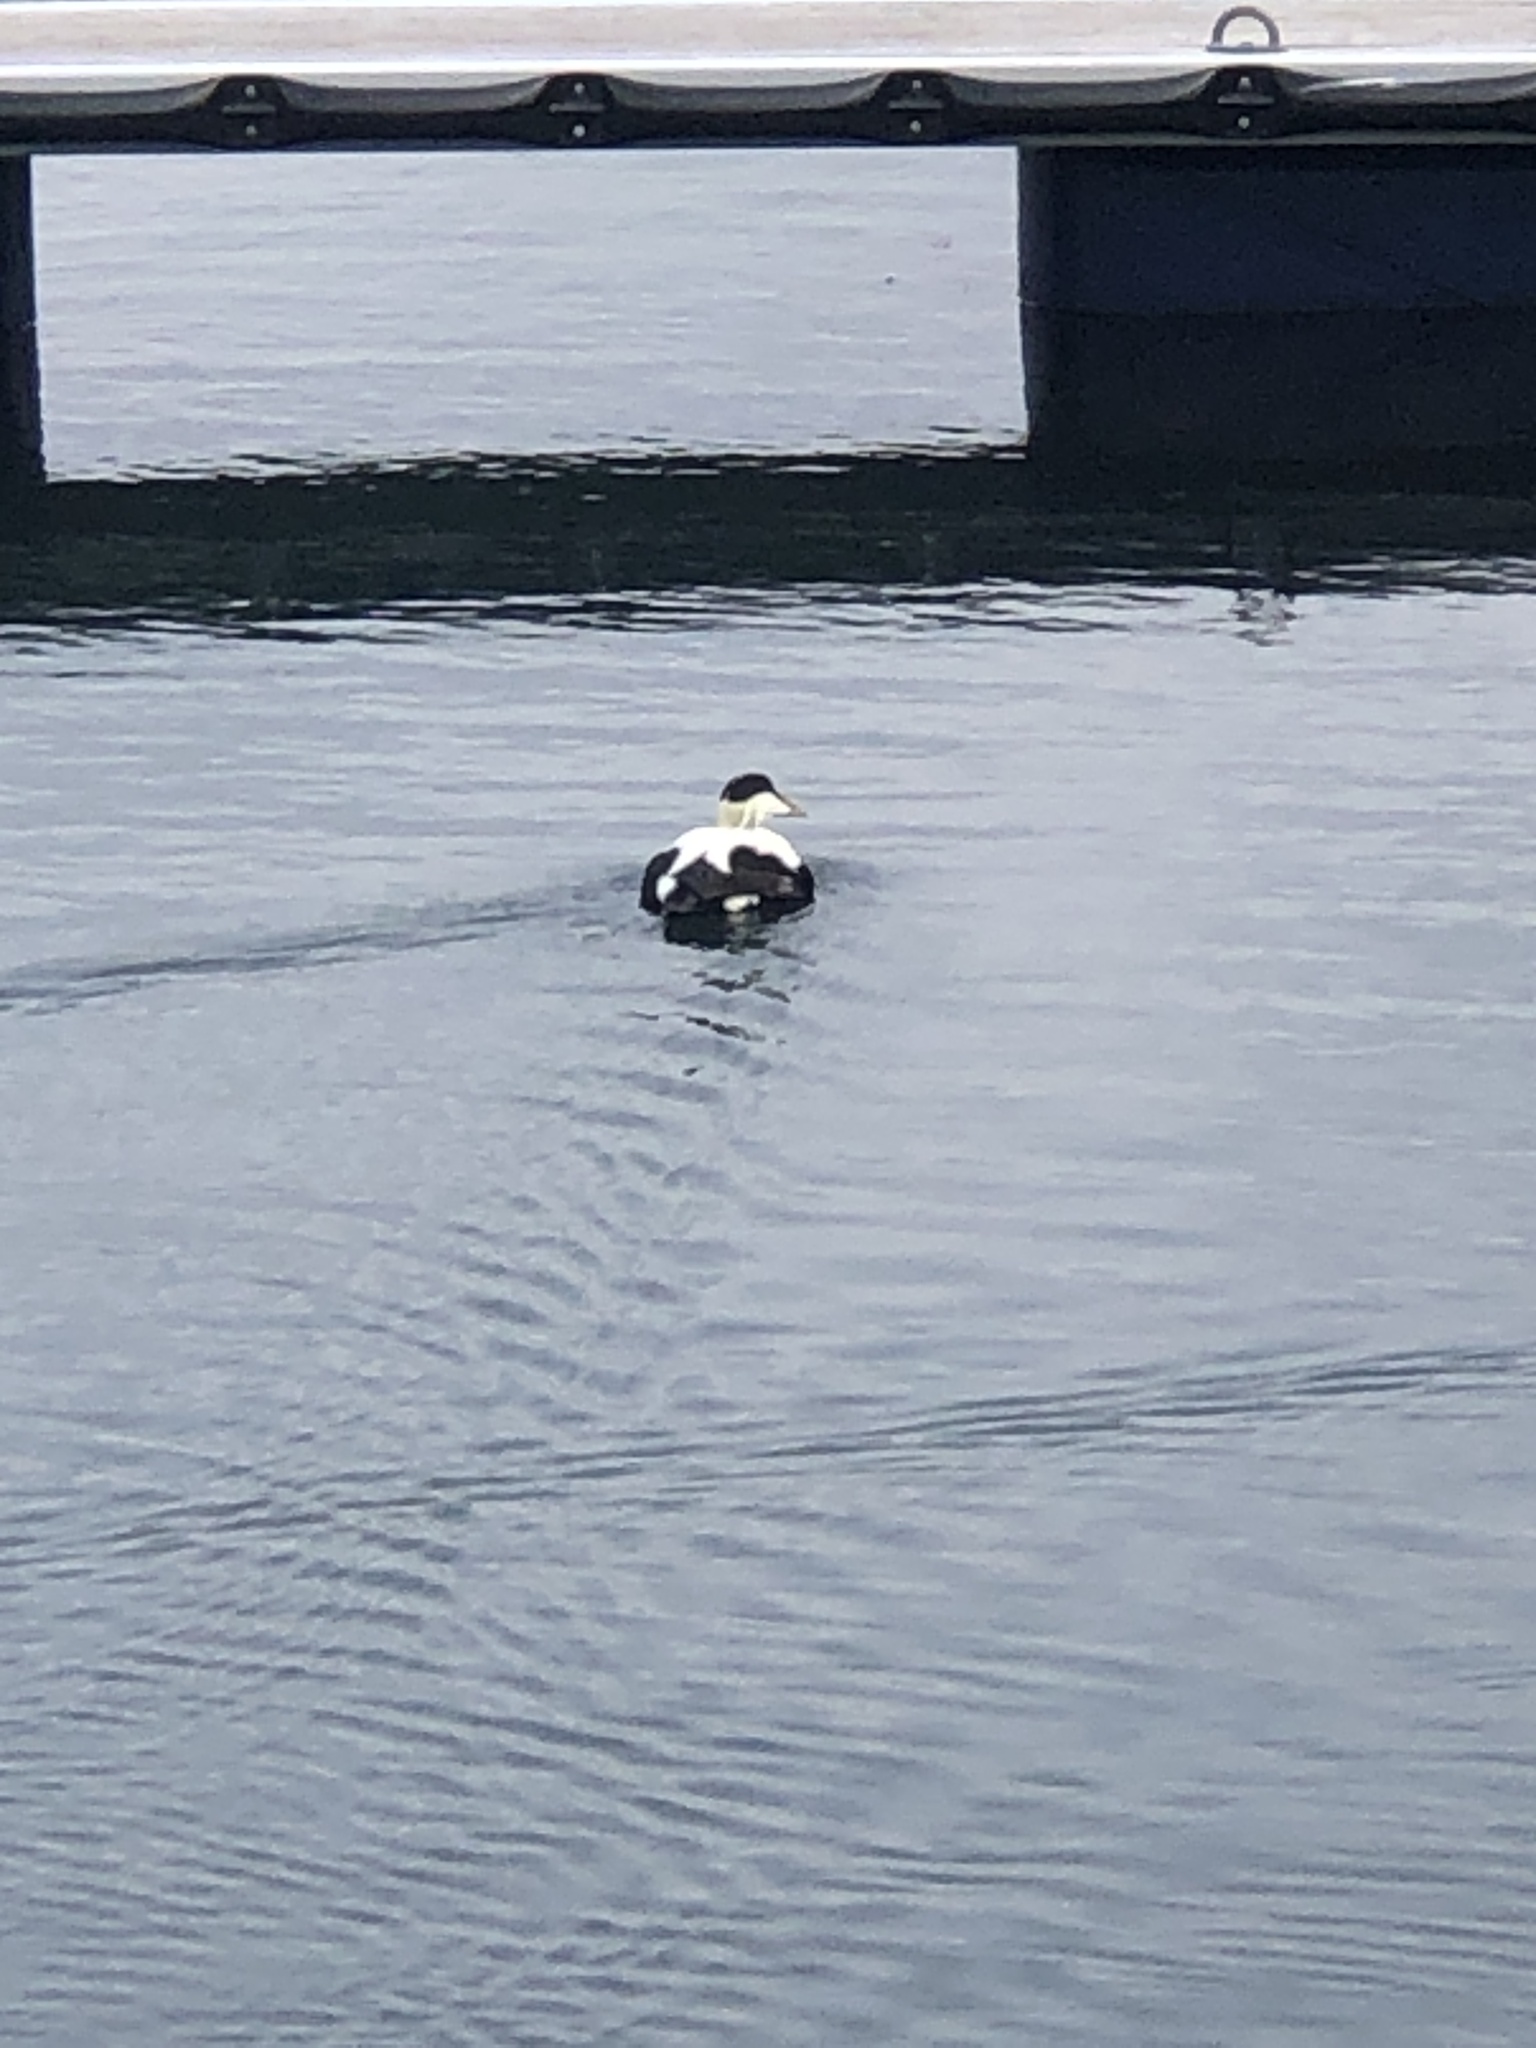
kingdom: Animalia
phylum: Chordata
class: Aves
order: Anseriformes
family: Anatidae
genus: Somateria
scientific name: Somateria mollissima
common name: Common eider
